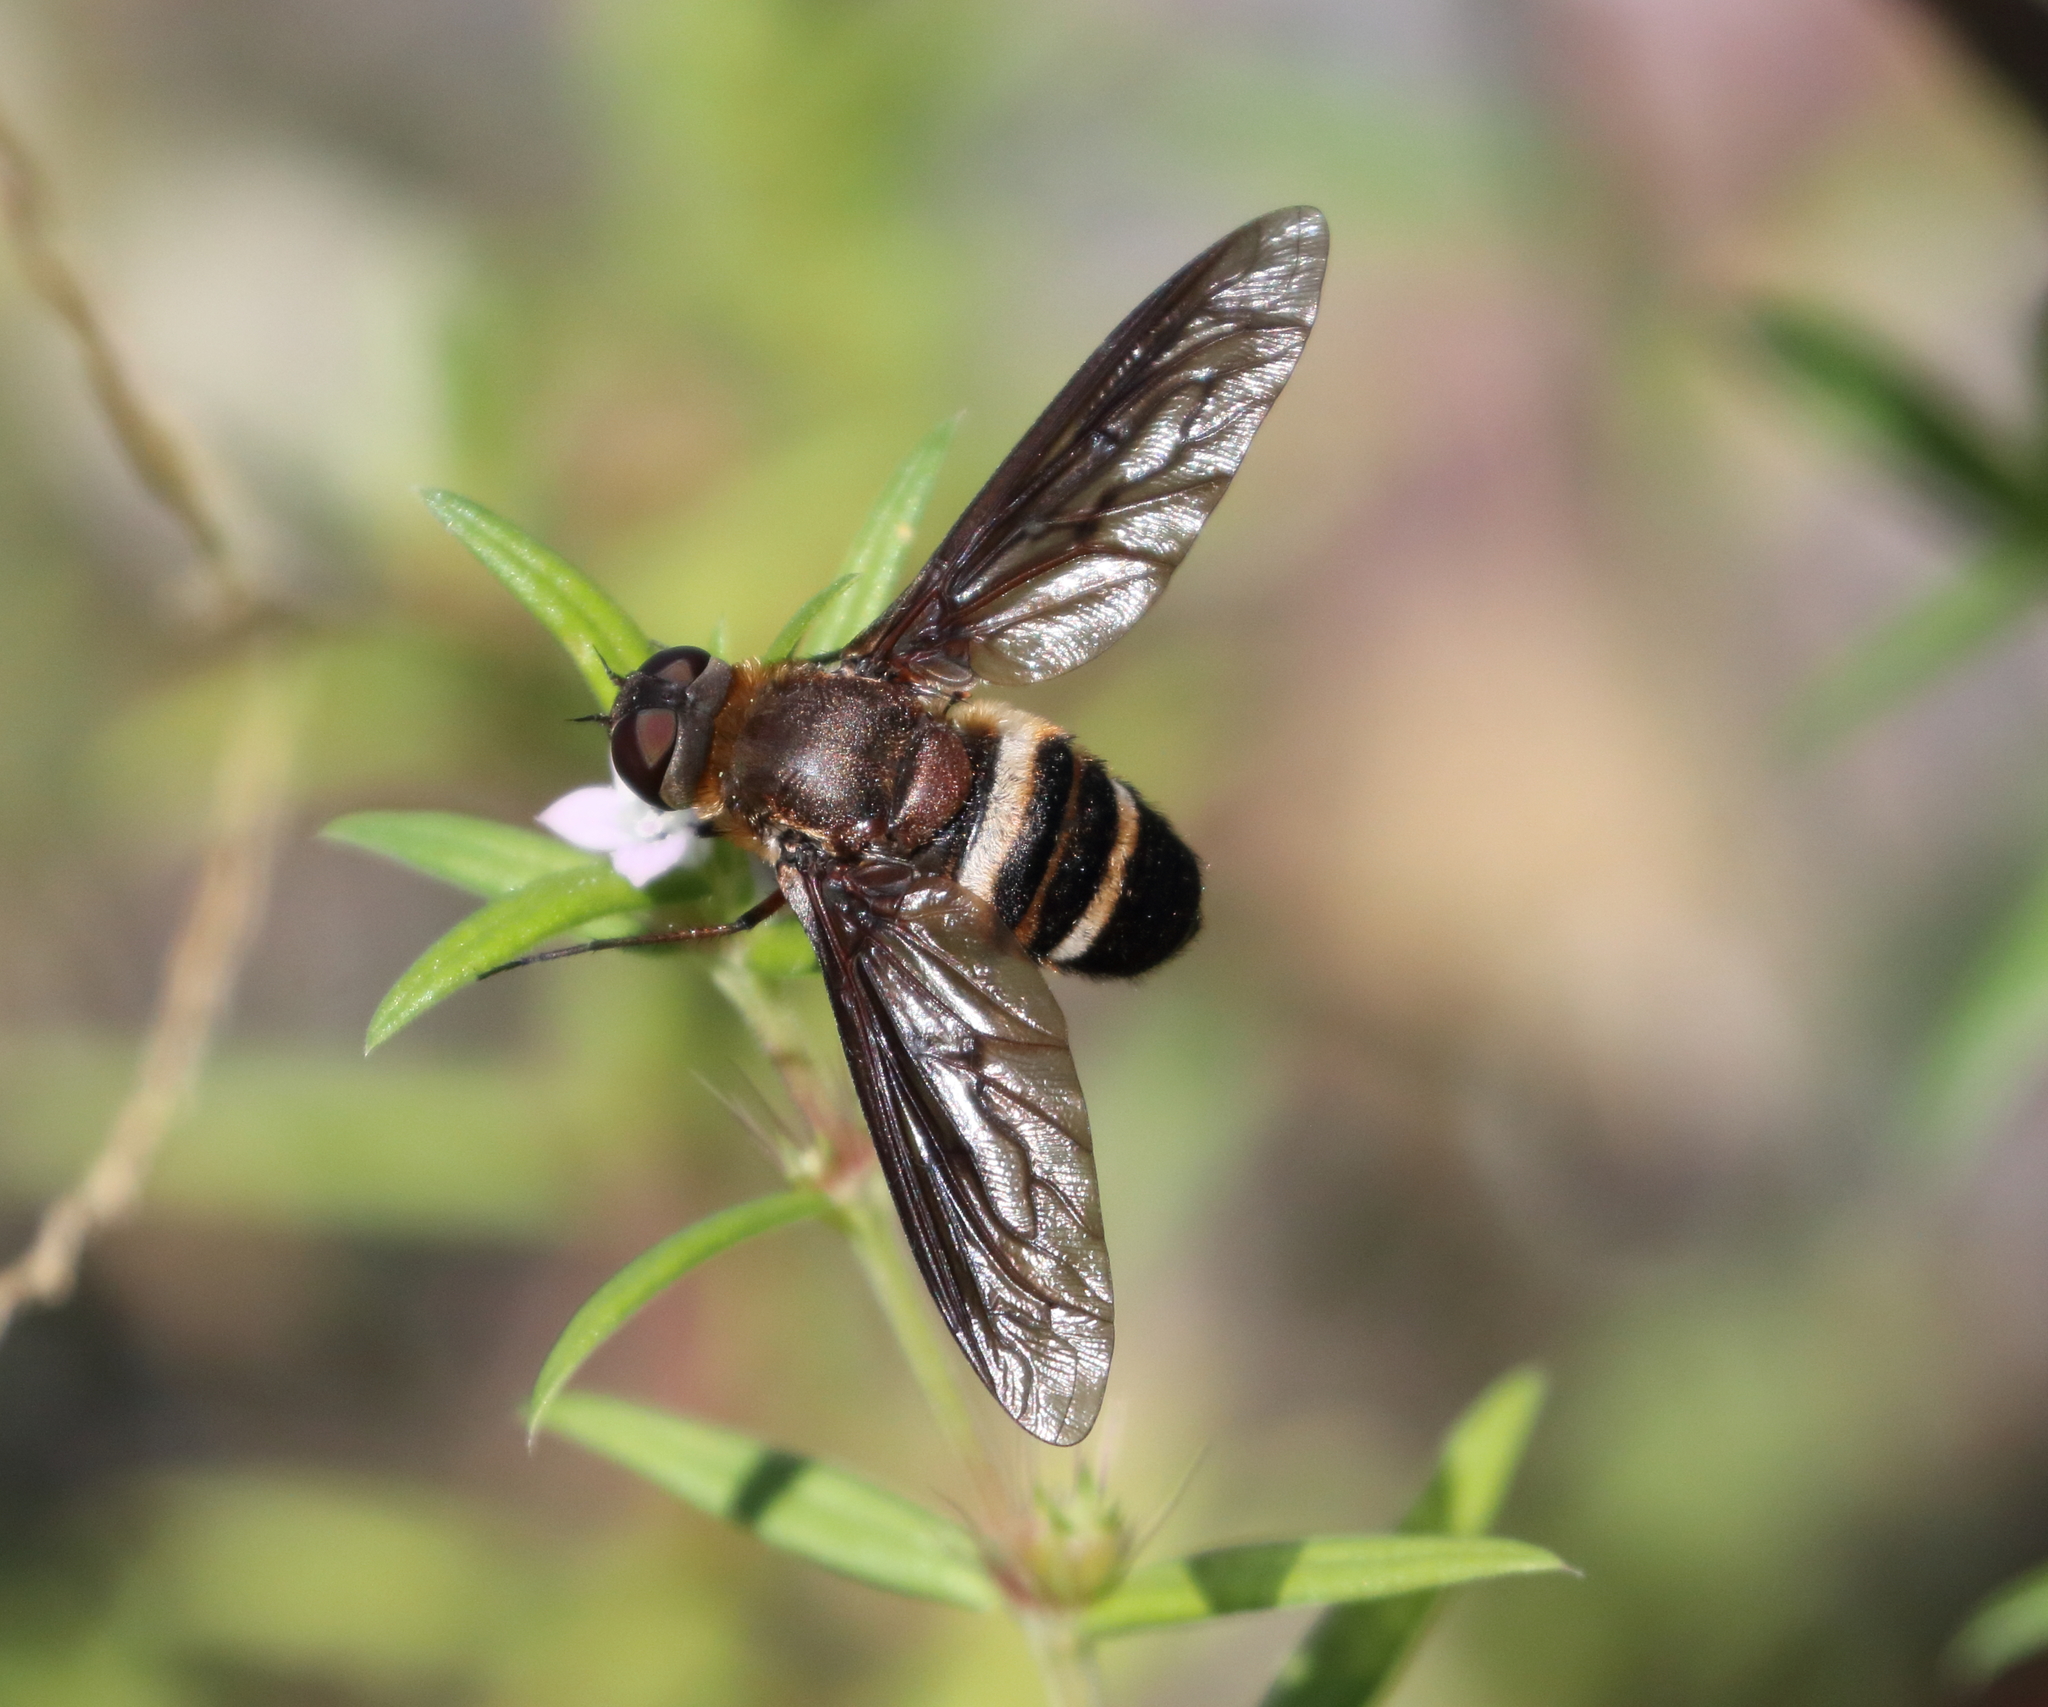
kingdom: Animalia
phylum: Arthropoda
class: Insecta
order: Diptera
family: Bombyliidae
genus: Exoprosopa
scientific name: Exoprosopa fasciata
